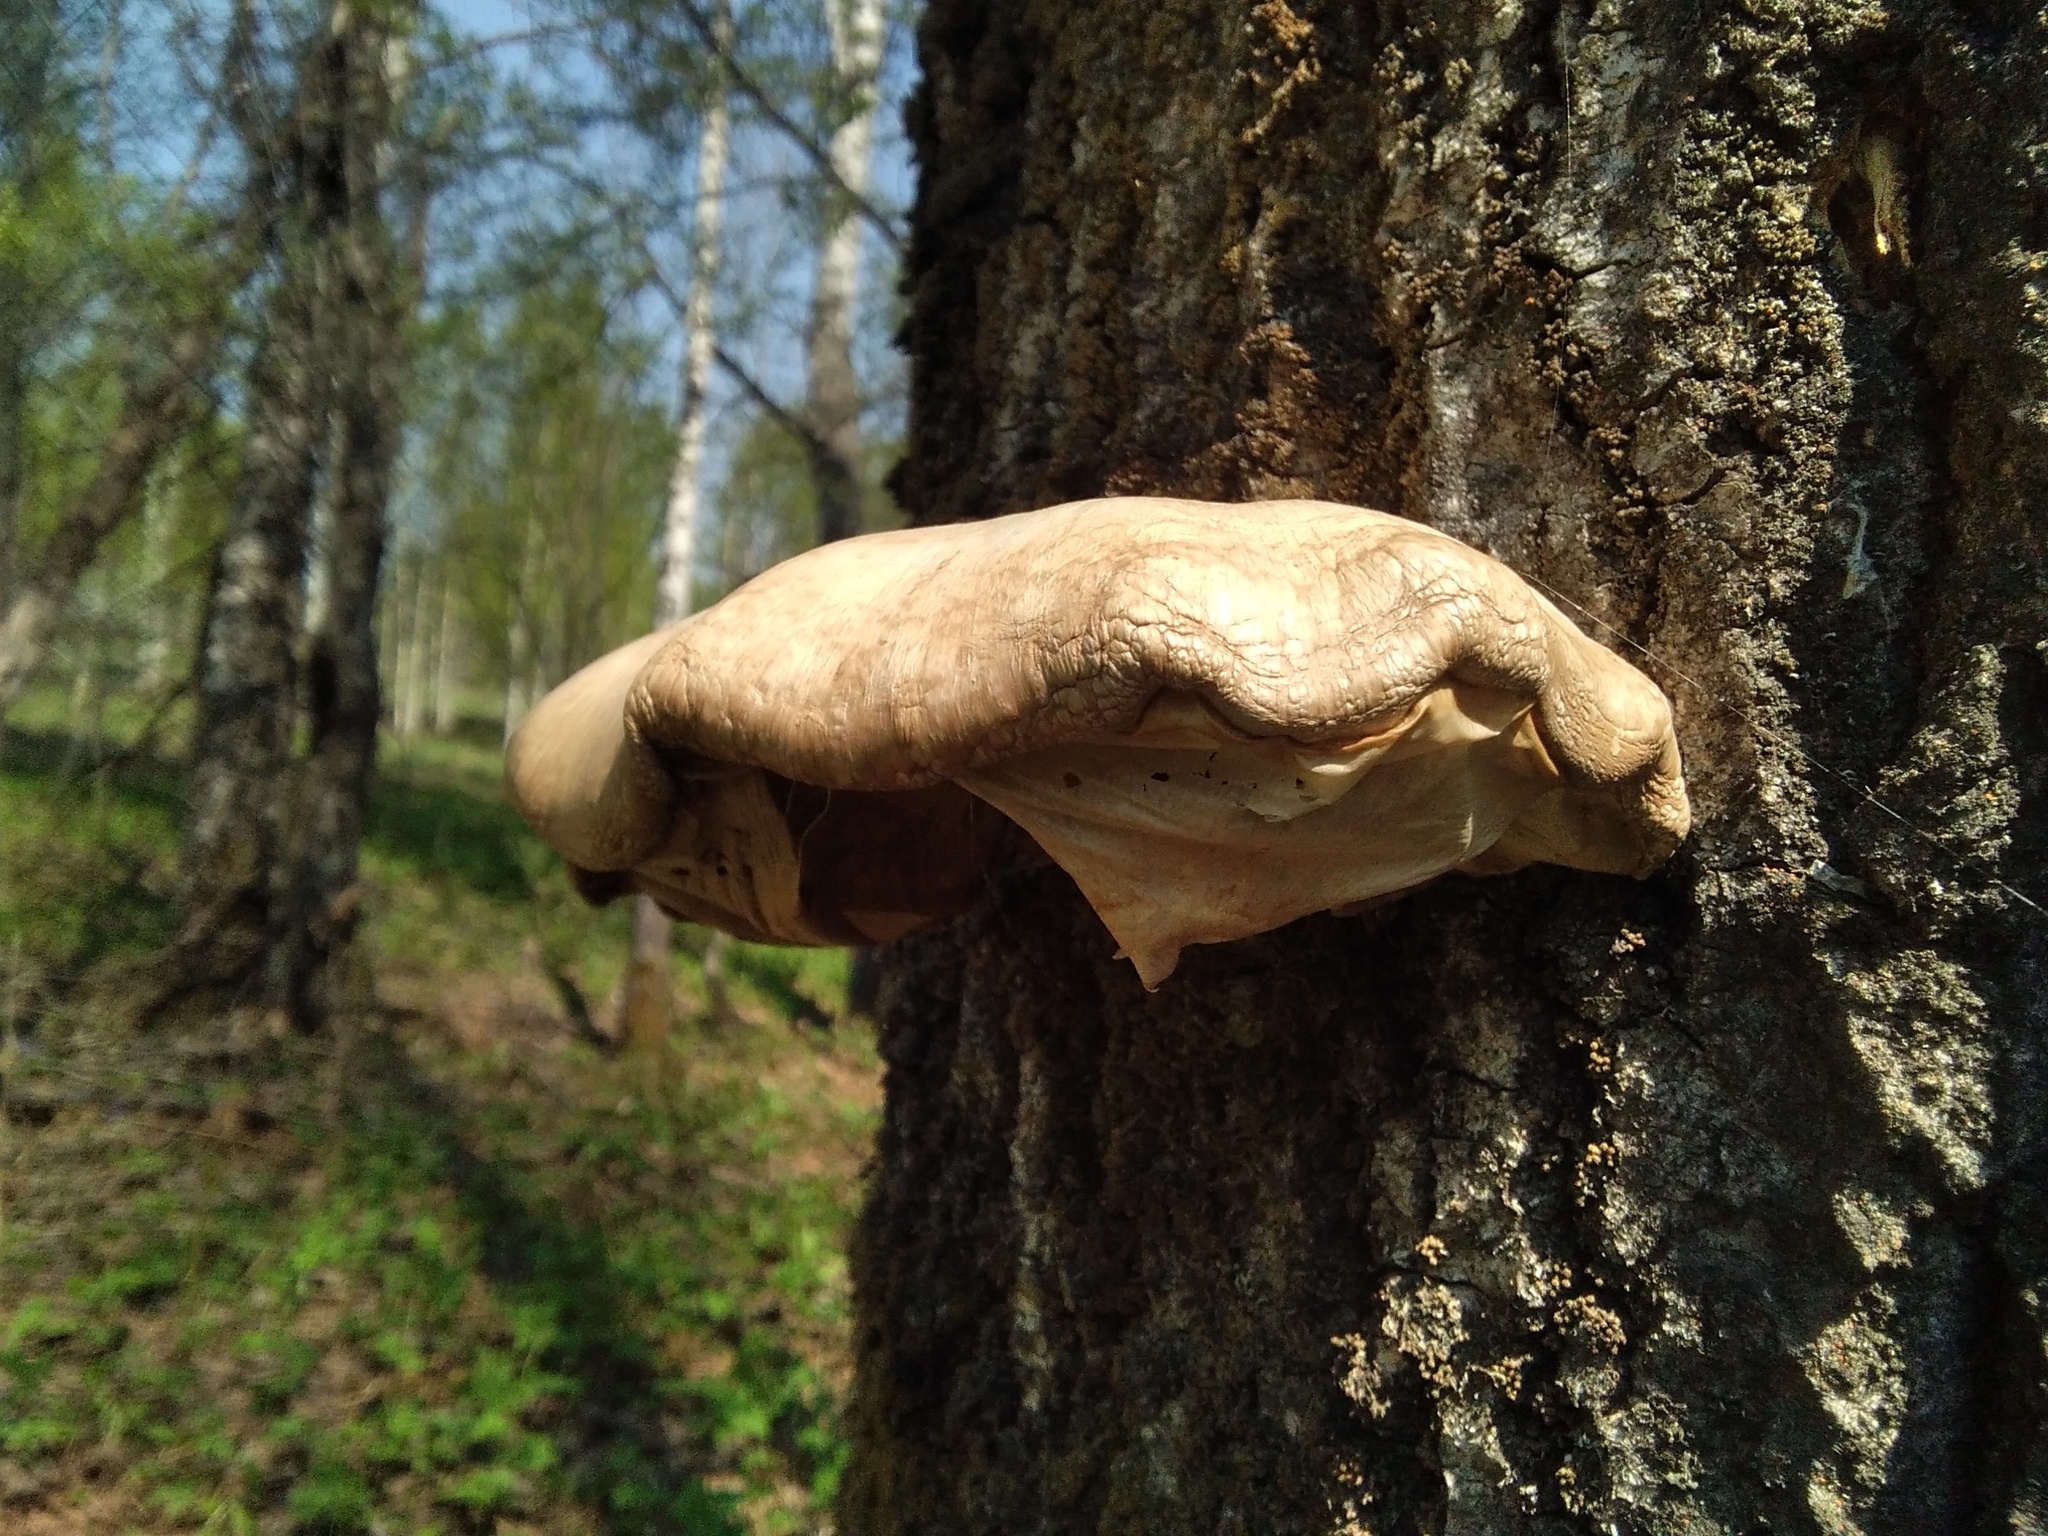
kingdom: Fungi
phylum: Basidiomycota
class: Agaricomycetes
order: Agaricales
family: Pleurotaceae
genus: Pleurotus
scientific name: Pleurotus calyptratus
